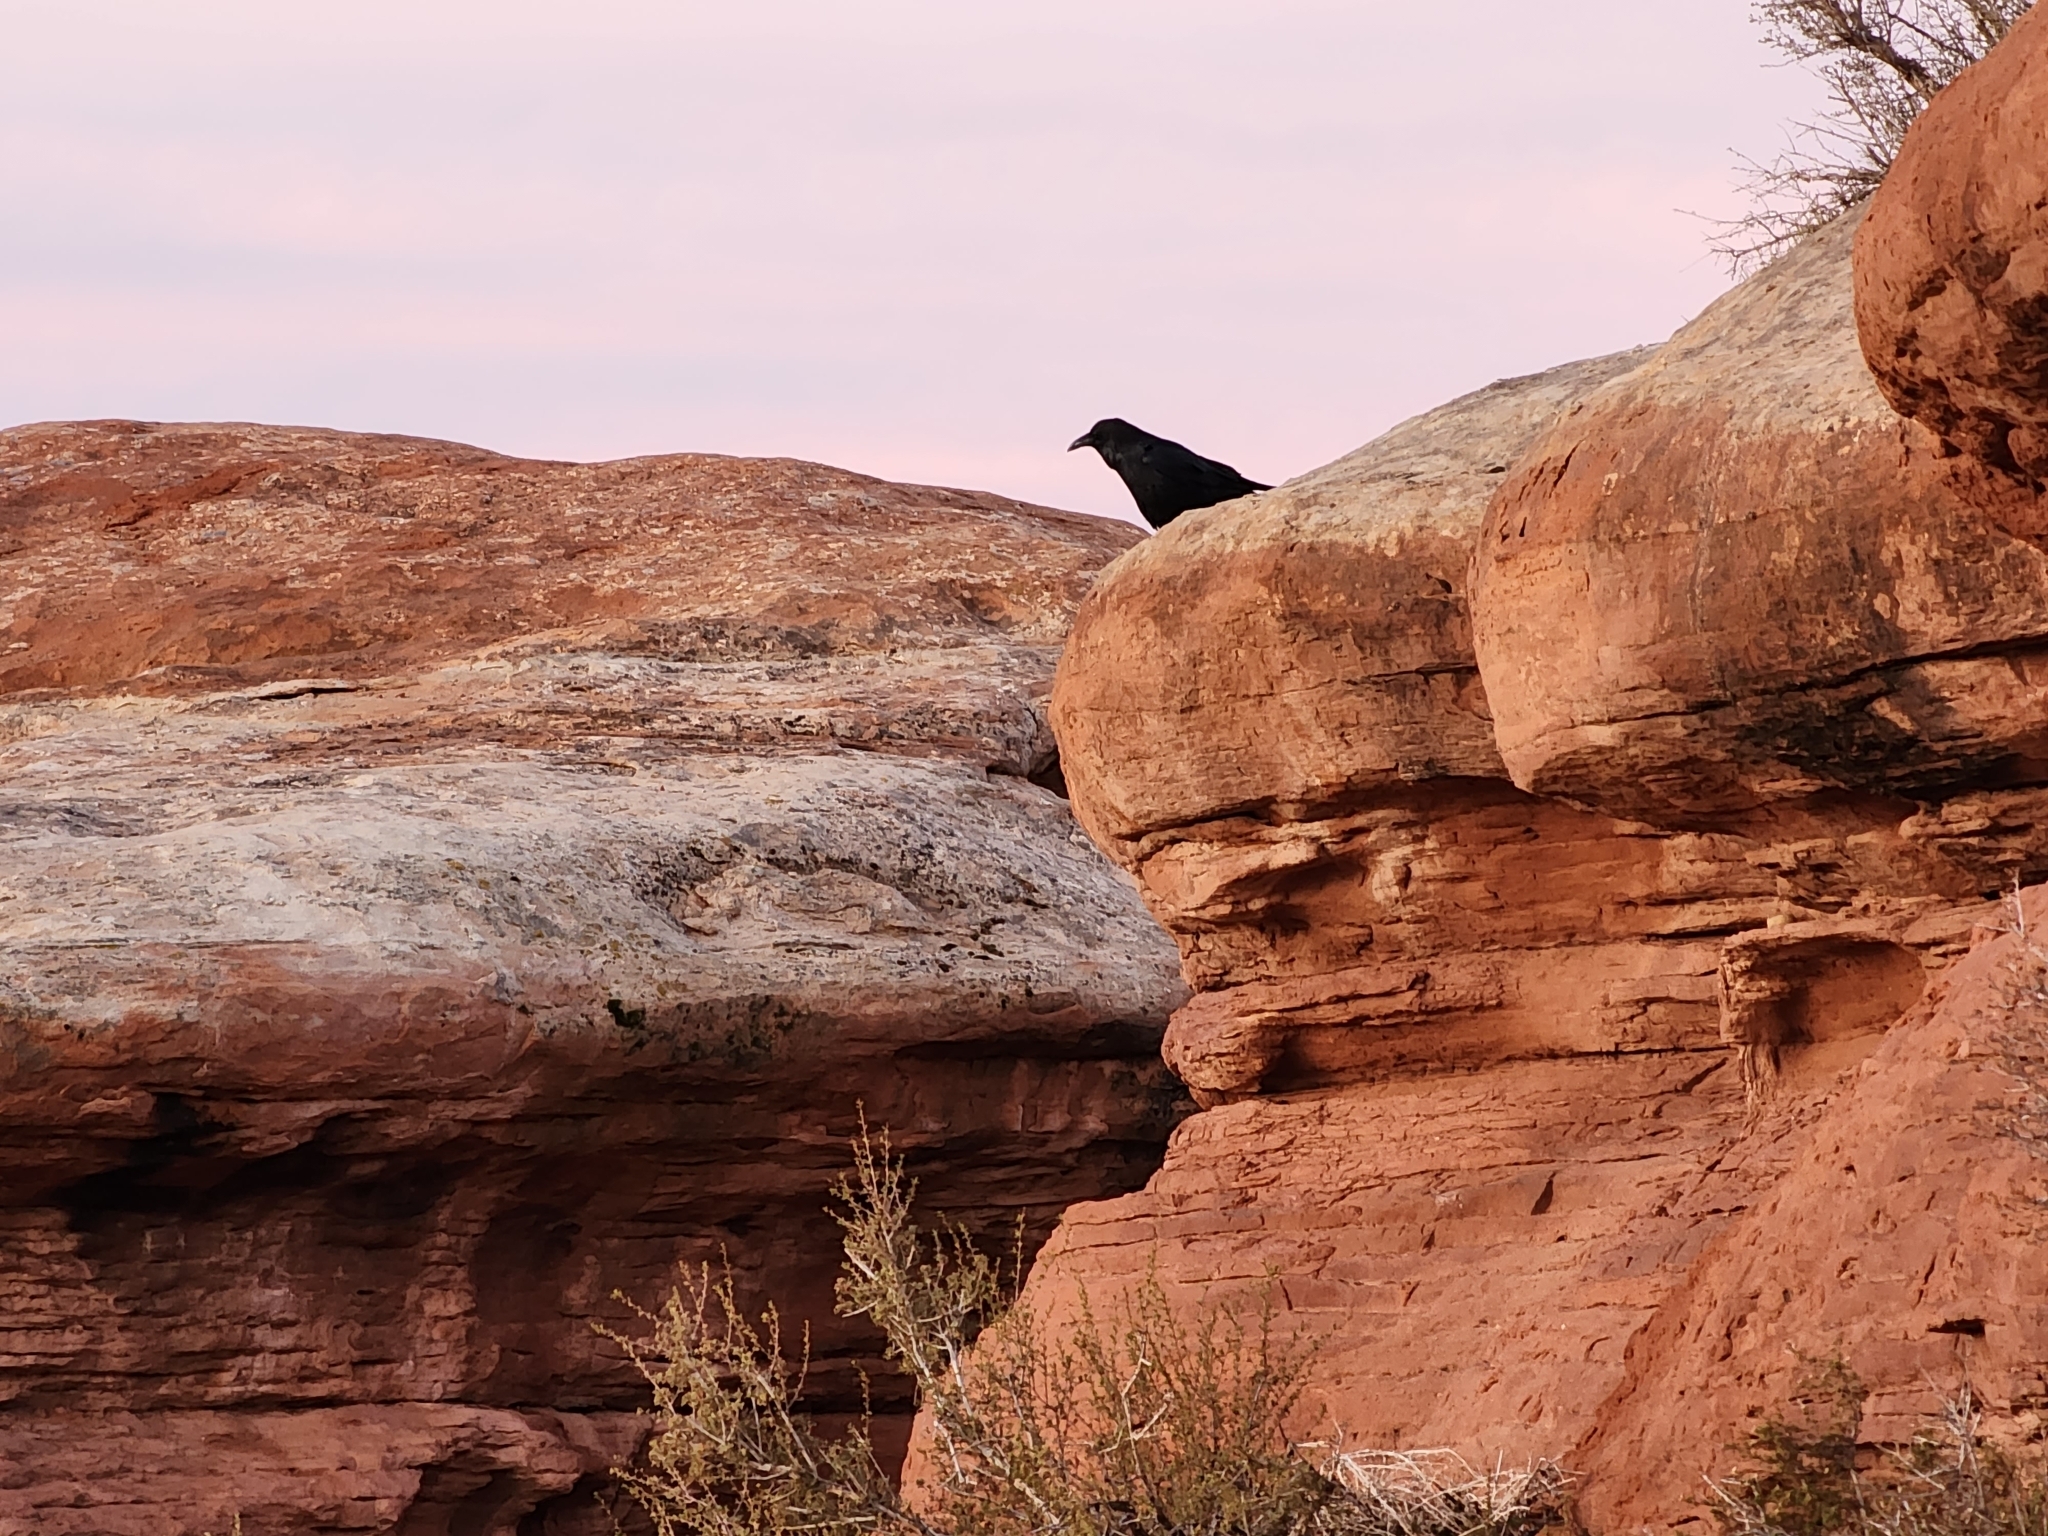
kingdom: Animalia
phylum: Chordata
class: Aves
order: Passeriformes
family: Corvidae
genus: Corvus
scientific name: Corvus corax
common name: Common raven
